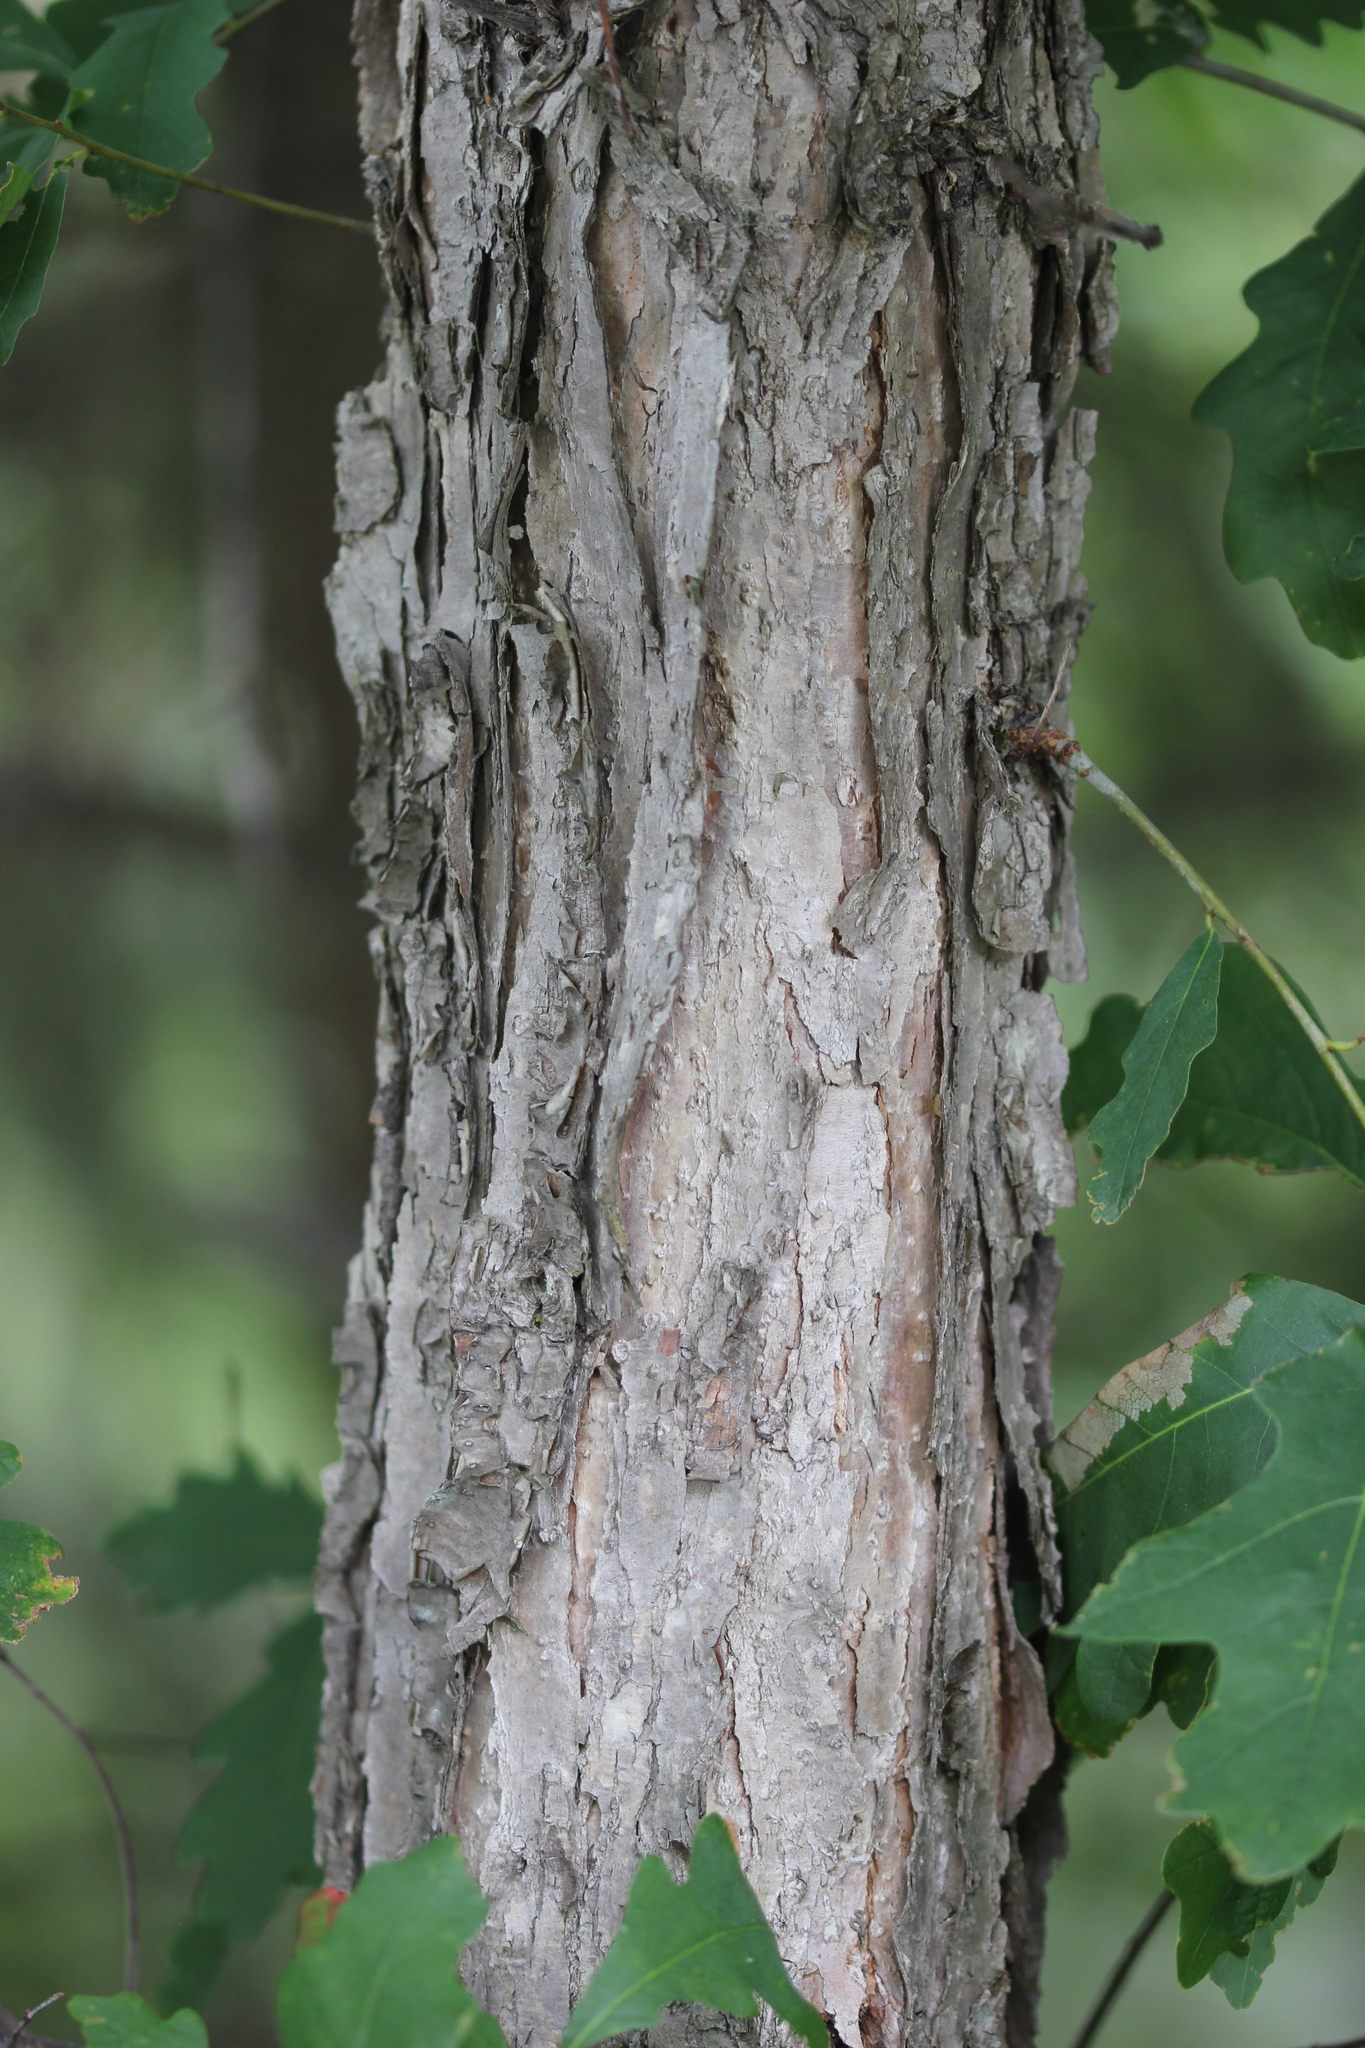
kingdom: Plantae
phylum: Tracheophyta
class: Magnoliopsida
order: Fagales
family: Fagaceae
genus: Quercus
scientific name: Quercus alba
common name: White oak
